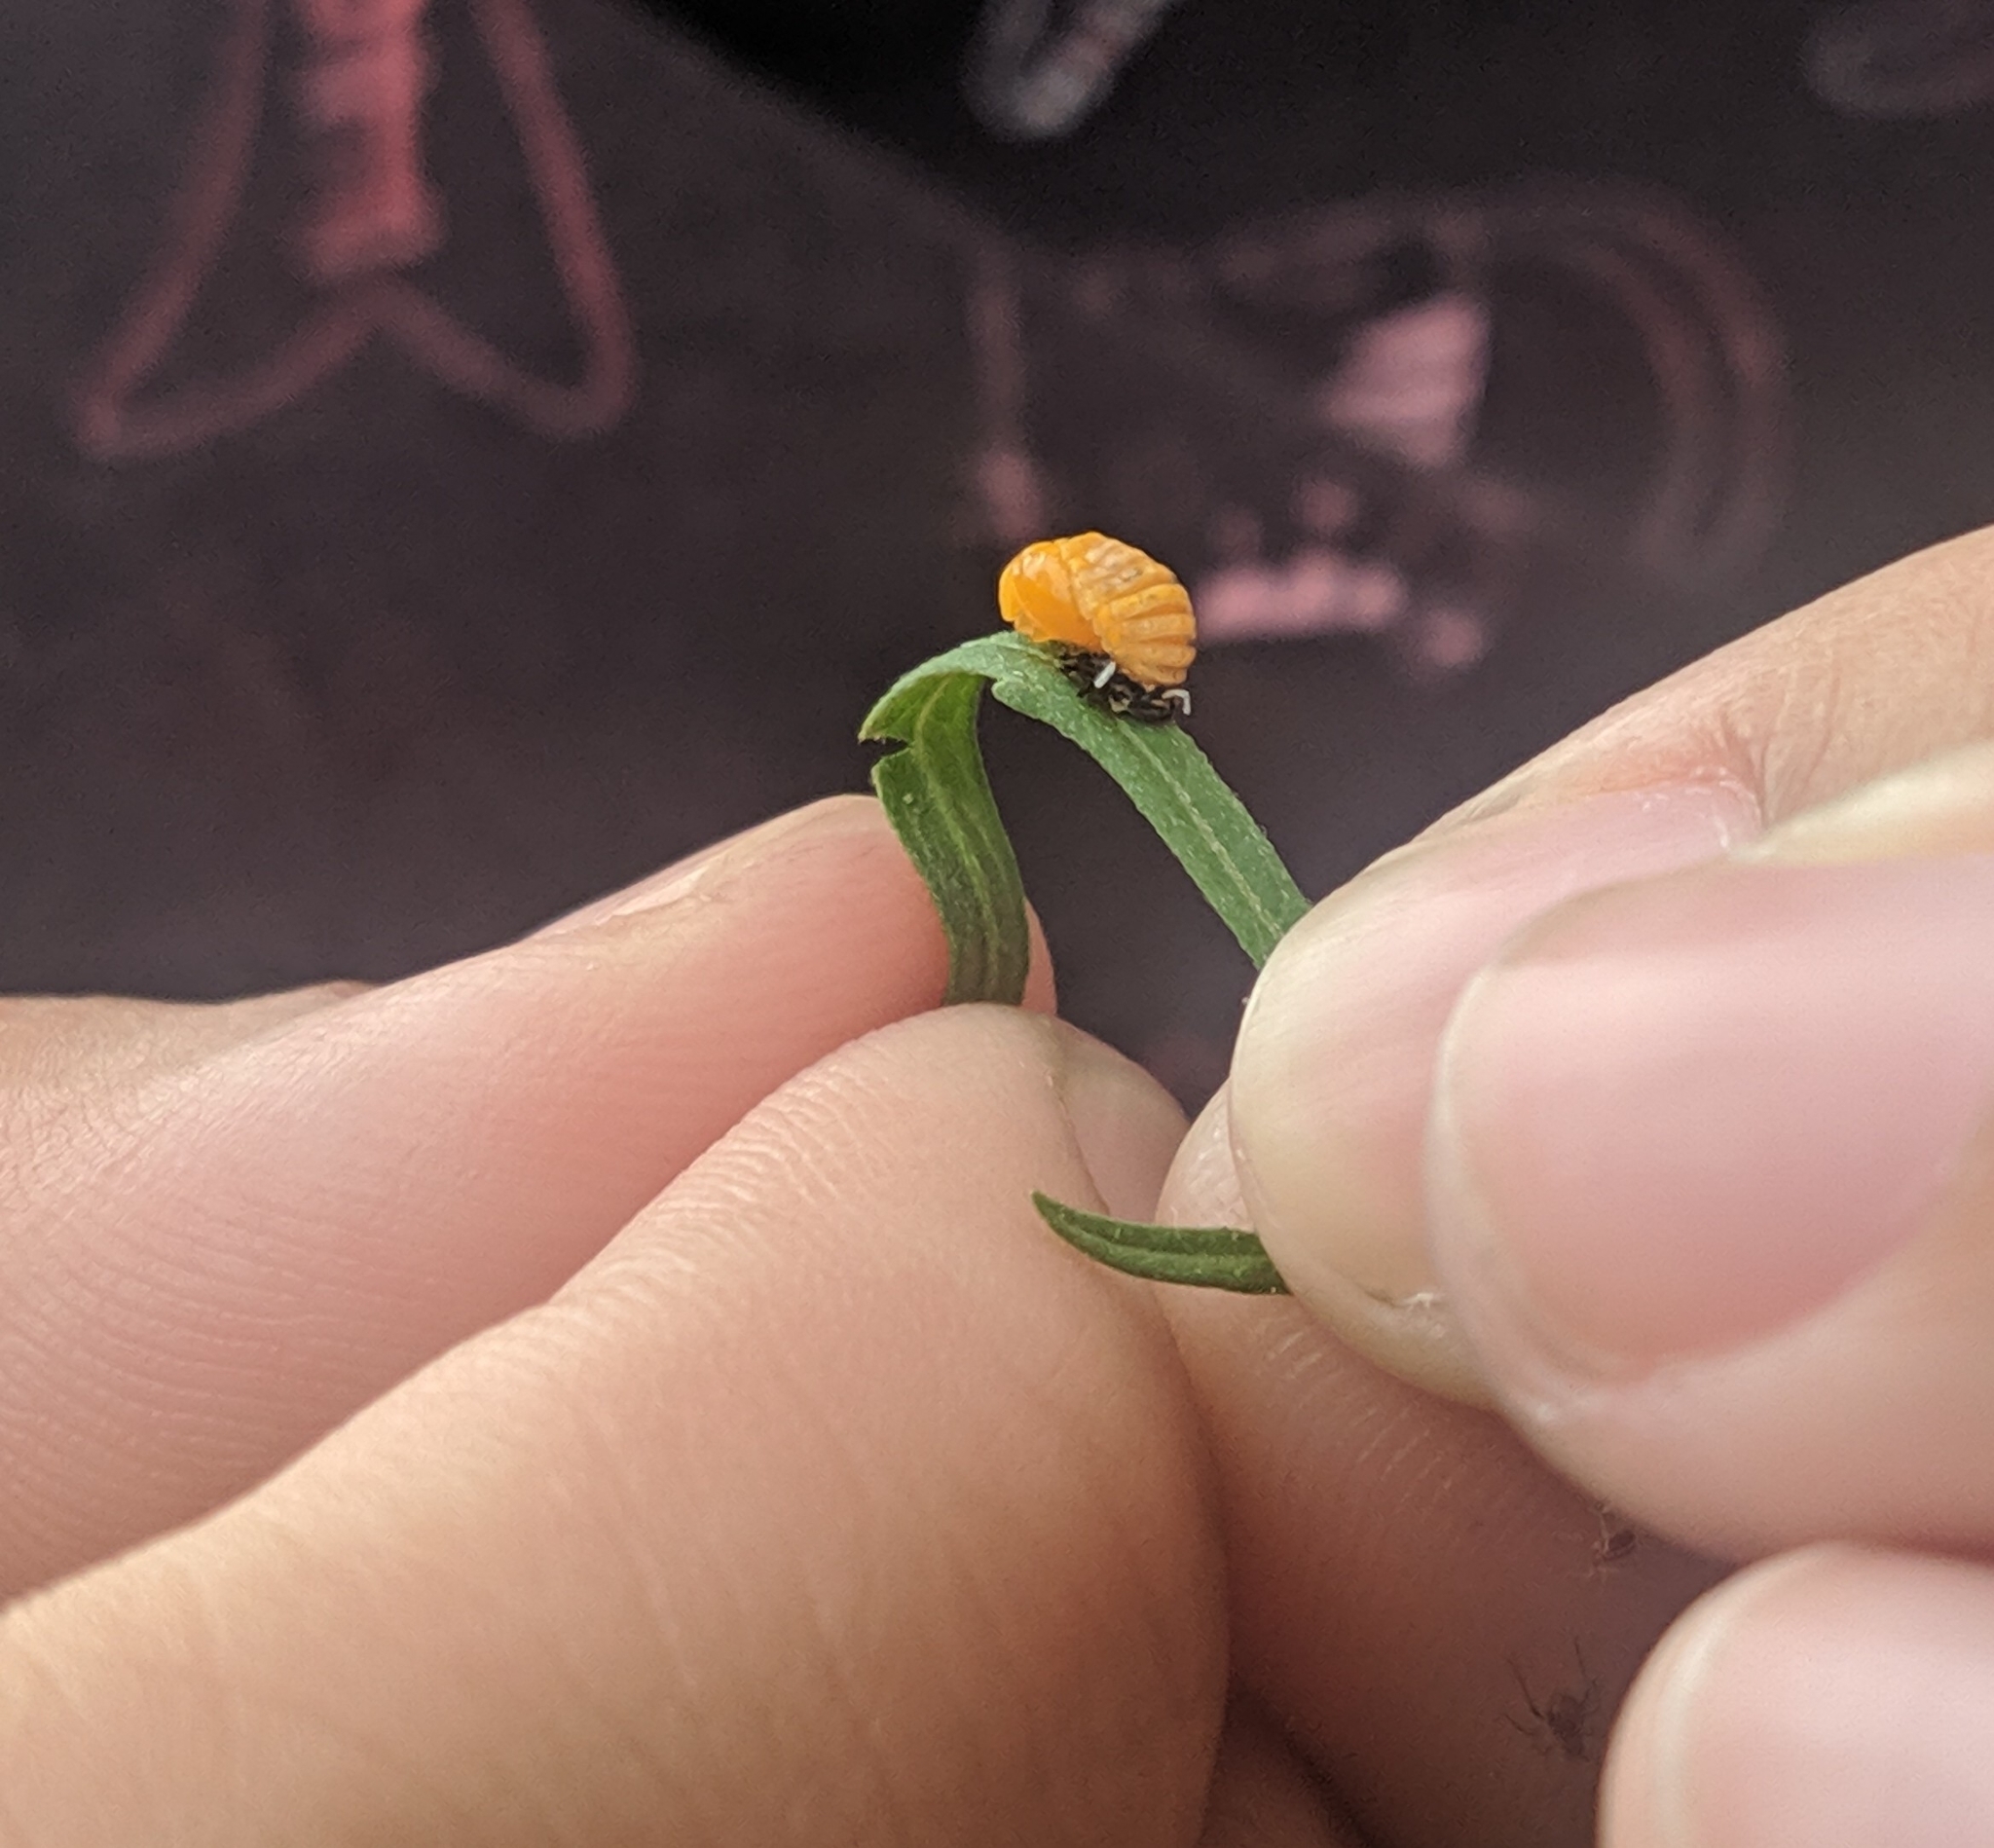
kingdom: Animalia
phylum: Arthropoda
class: Insecta
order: Coleoptera
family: Coccinellidae
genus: Cycloneda
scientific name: Cycloneda sanguinea
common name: Ladybird beetle
